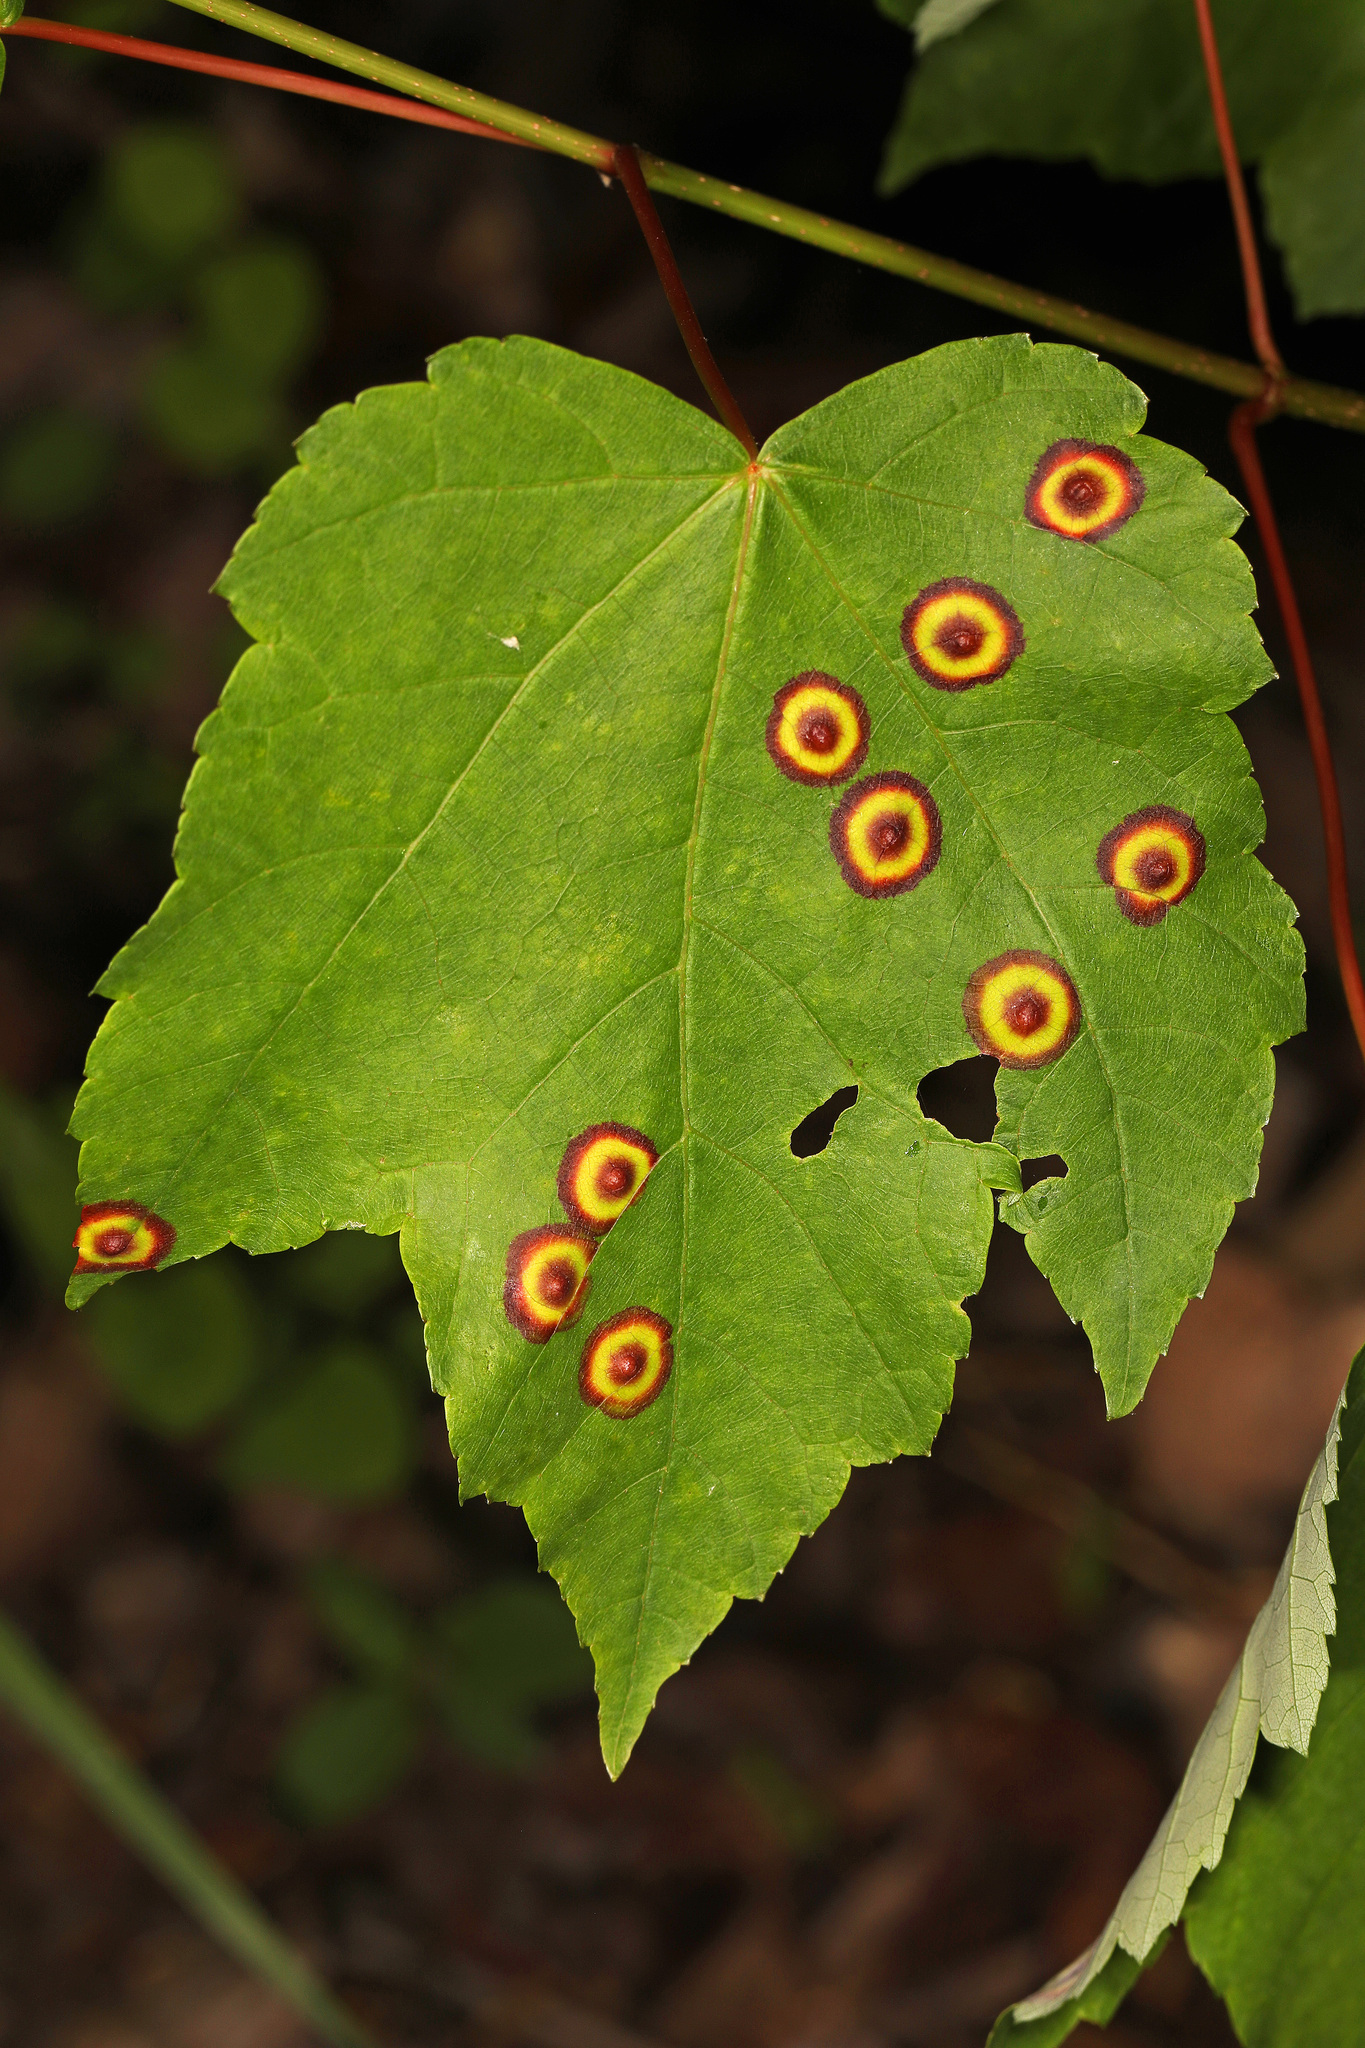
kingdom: Animalia
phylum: Arthropoda
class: Insecta
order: Diptera
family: Cecidomyiidae
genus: Acericecis
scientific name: Acericecis ocellaris
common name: Ocellate gall midge
